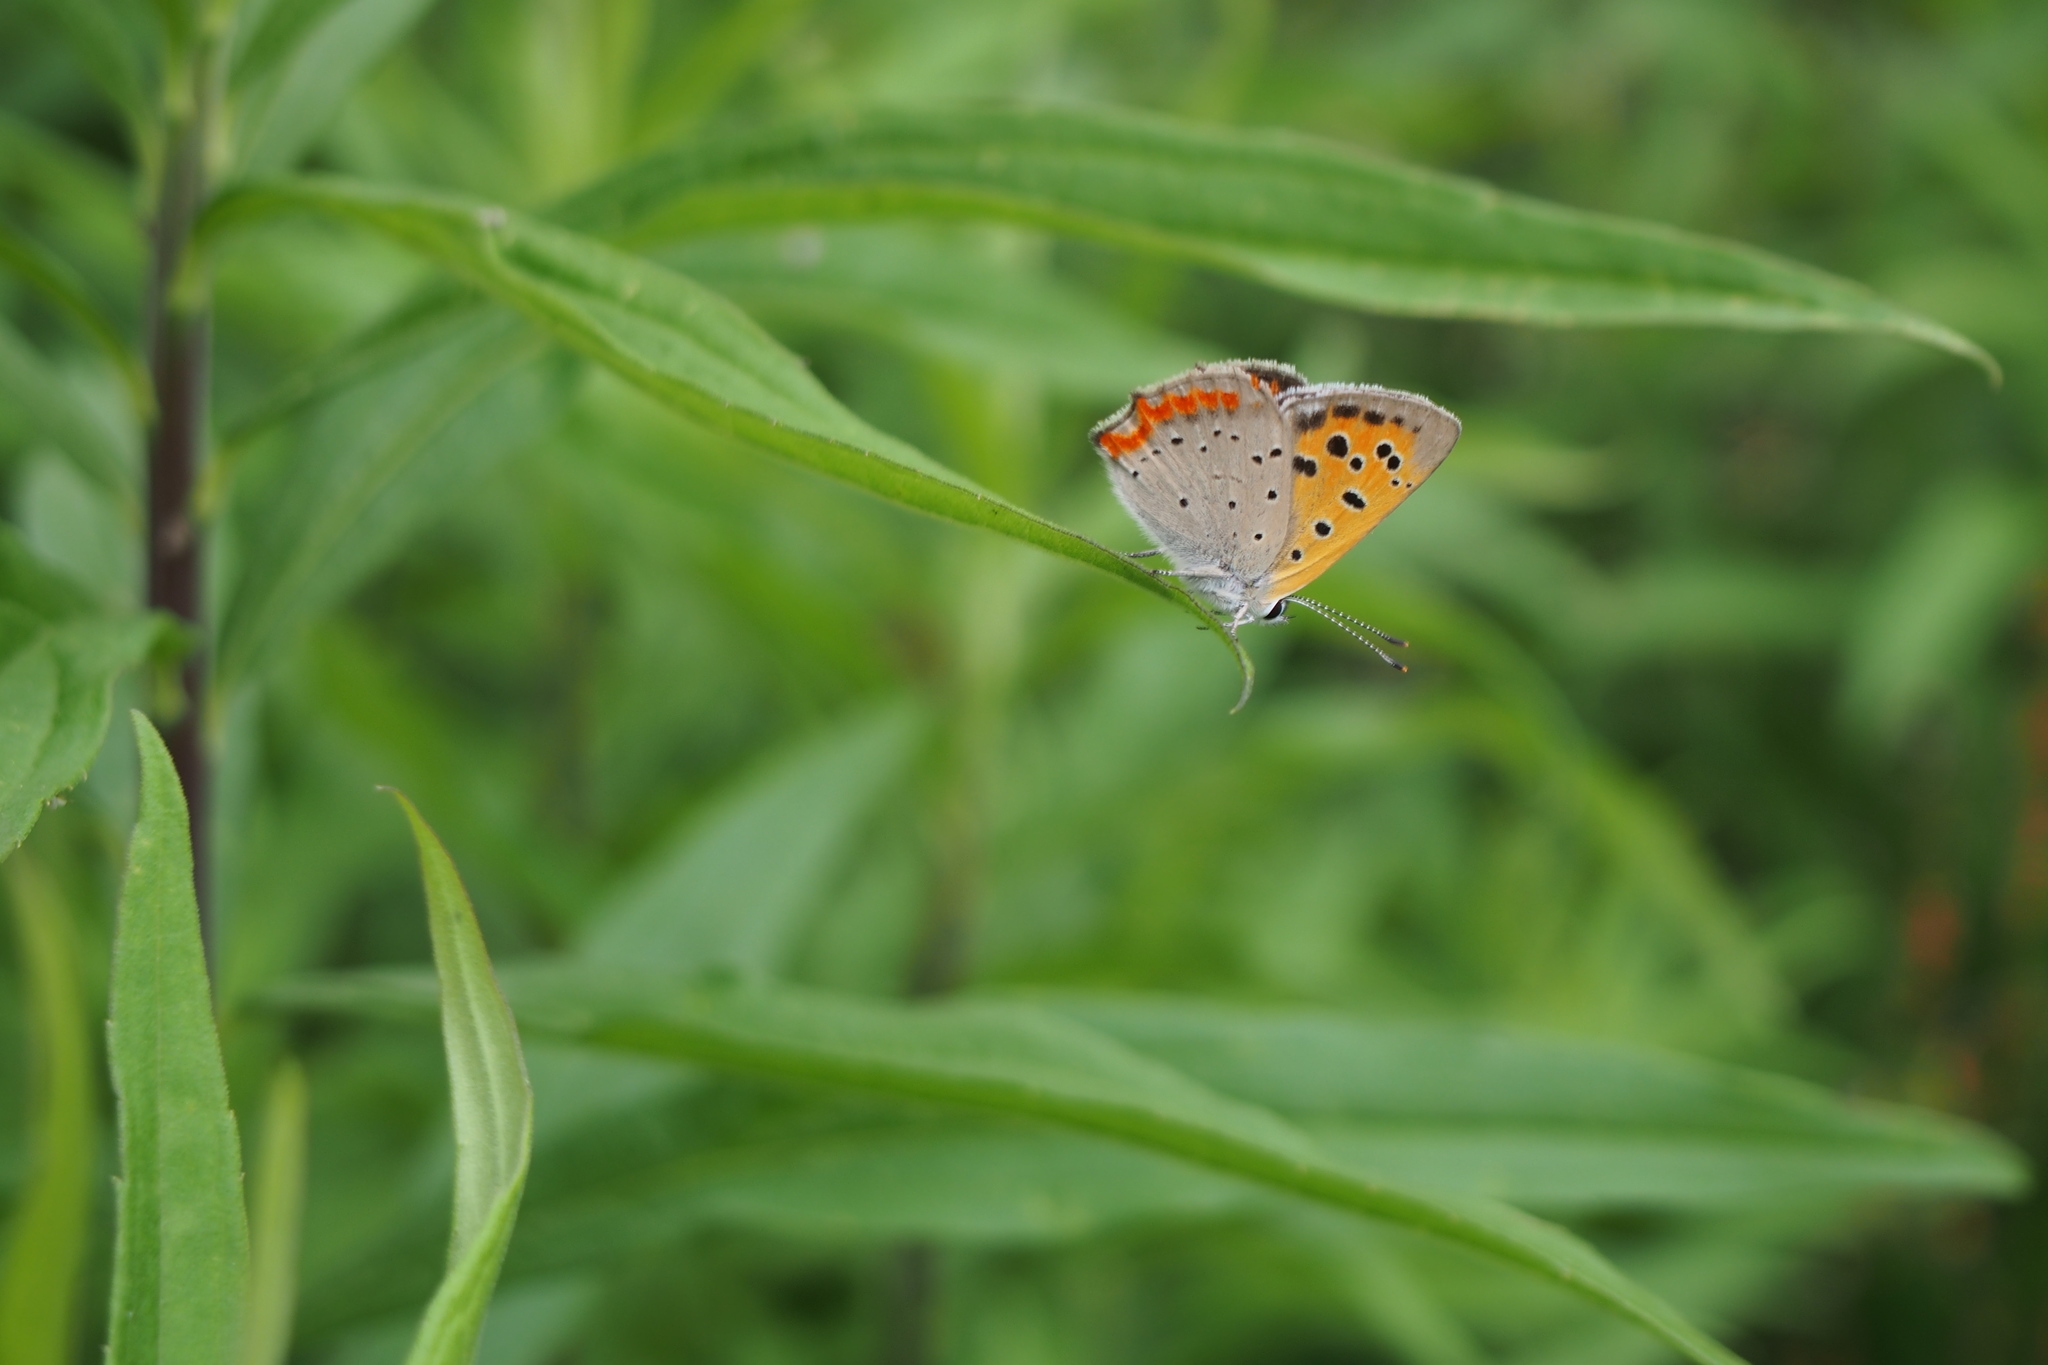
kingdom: Animalia
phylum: Arthropoda
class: Insecta
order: Lepidoptera
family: Lycaenidae
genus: Lycaena
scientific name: Lycaena phlaeas
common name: Small copper
